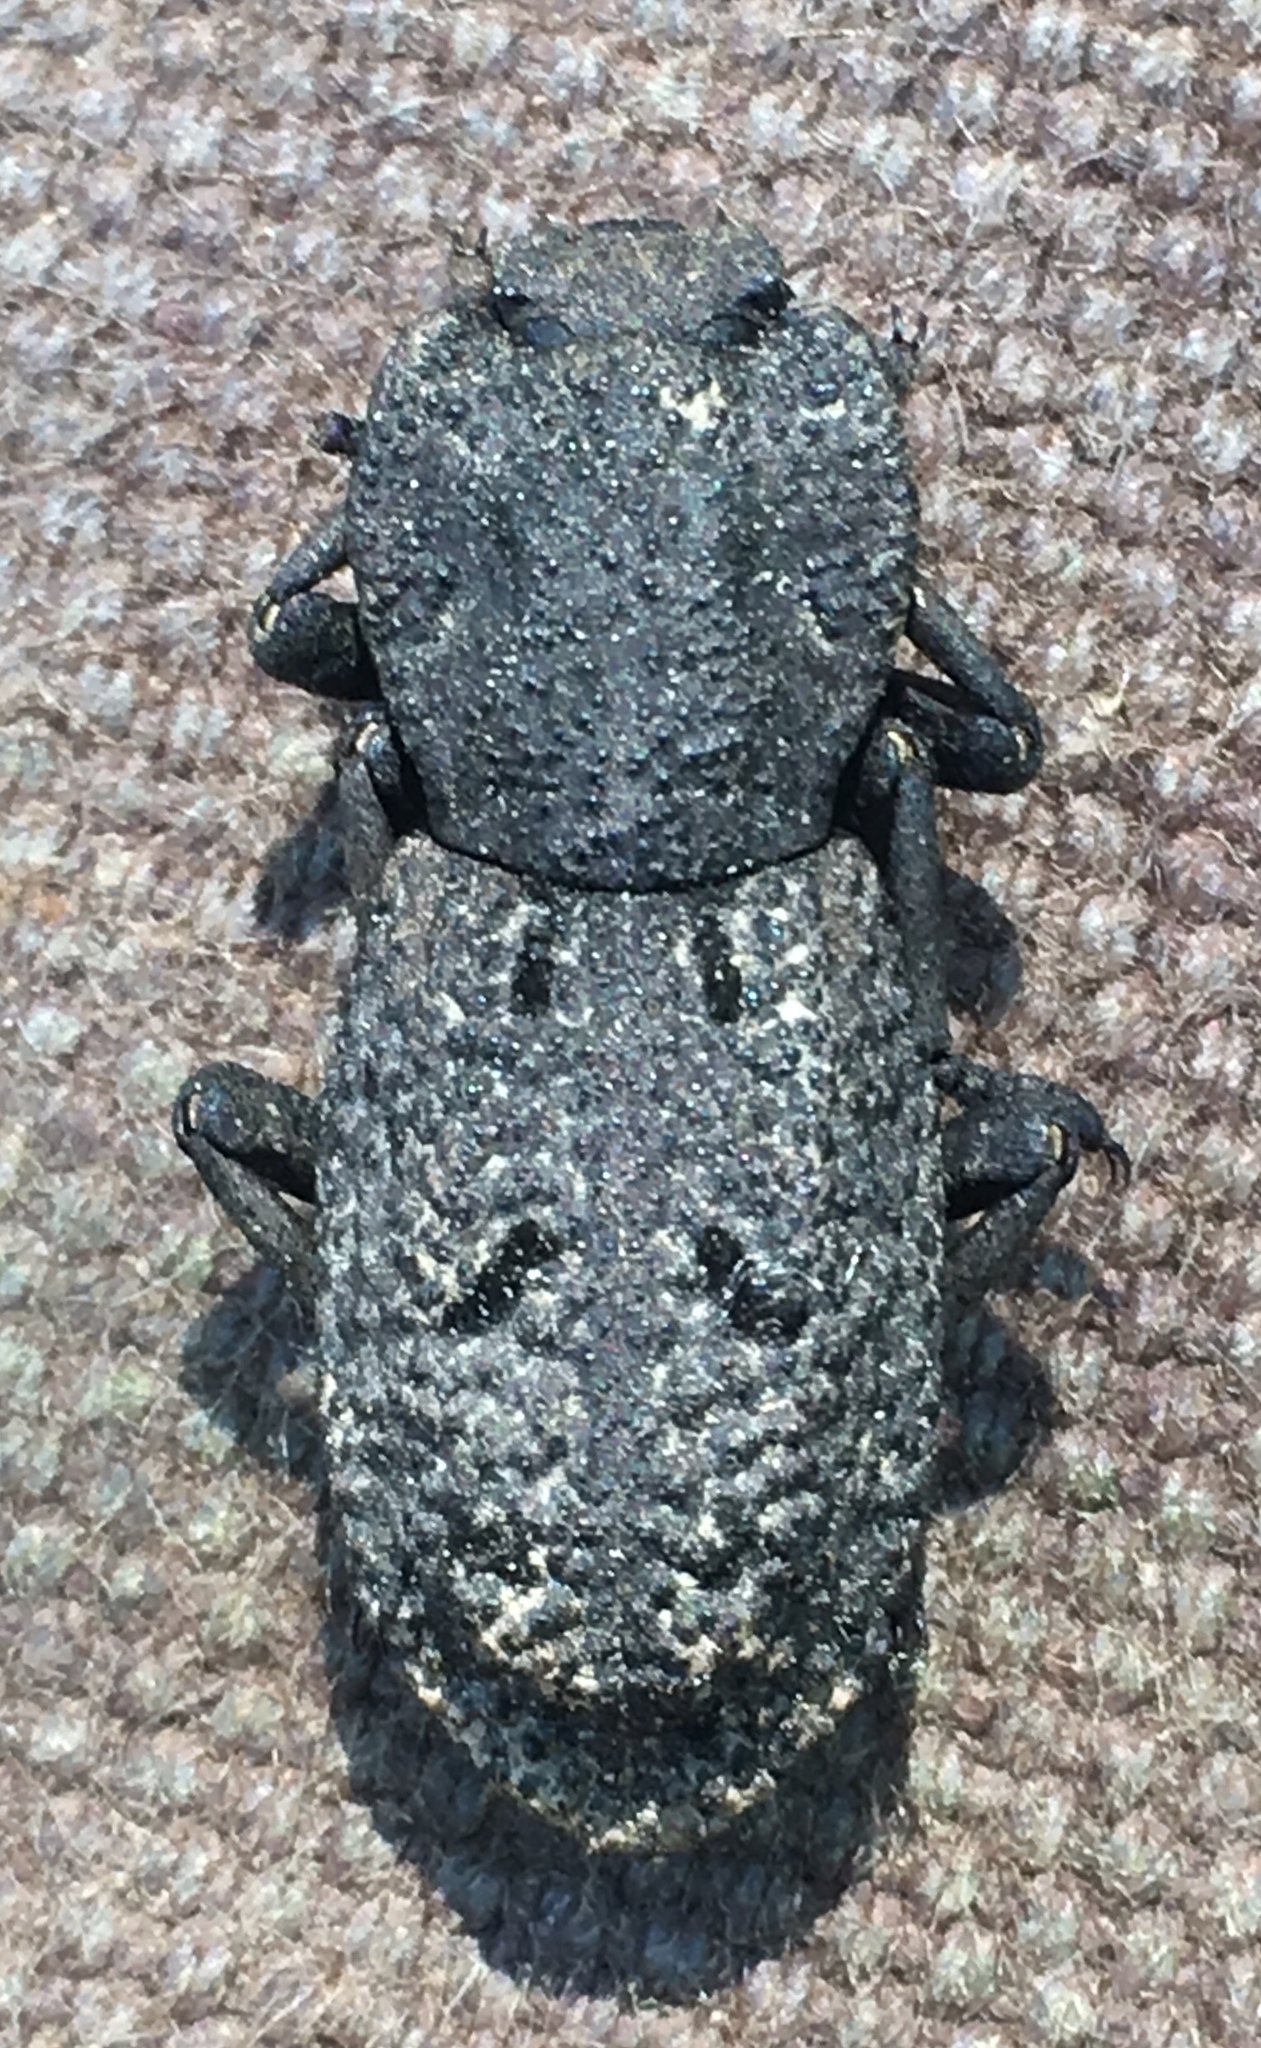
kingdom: Animalia
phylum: Arthropoda
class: Insecta
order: Coleoptera
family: Zopheridae
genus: Phloeodes
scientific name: Phloeodes diabolicus
